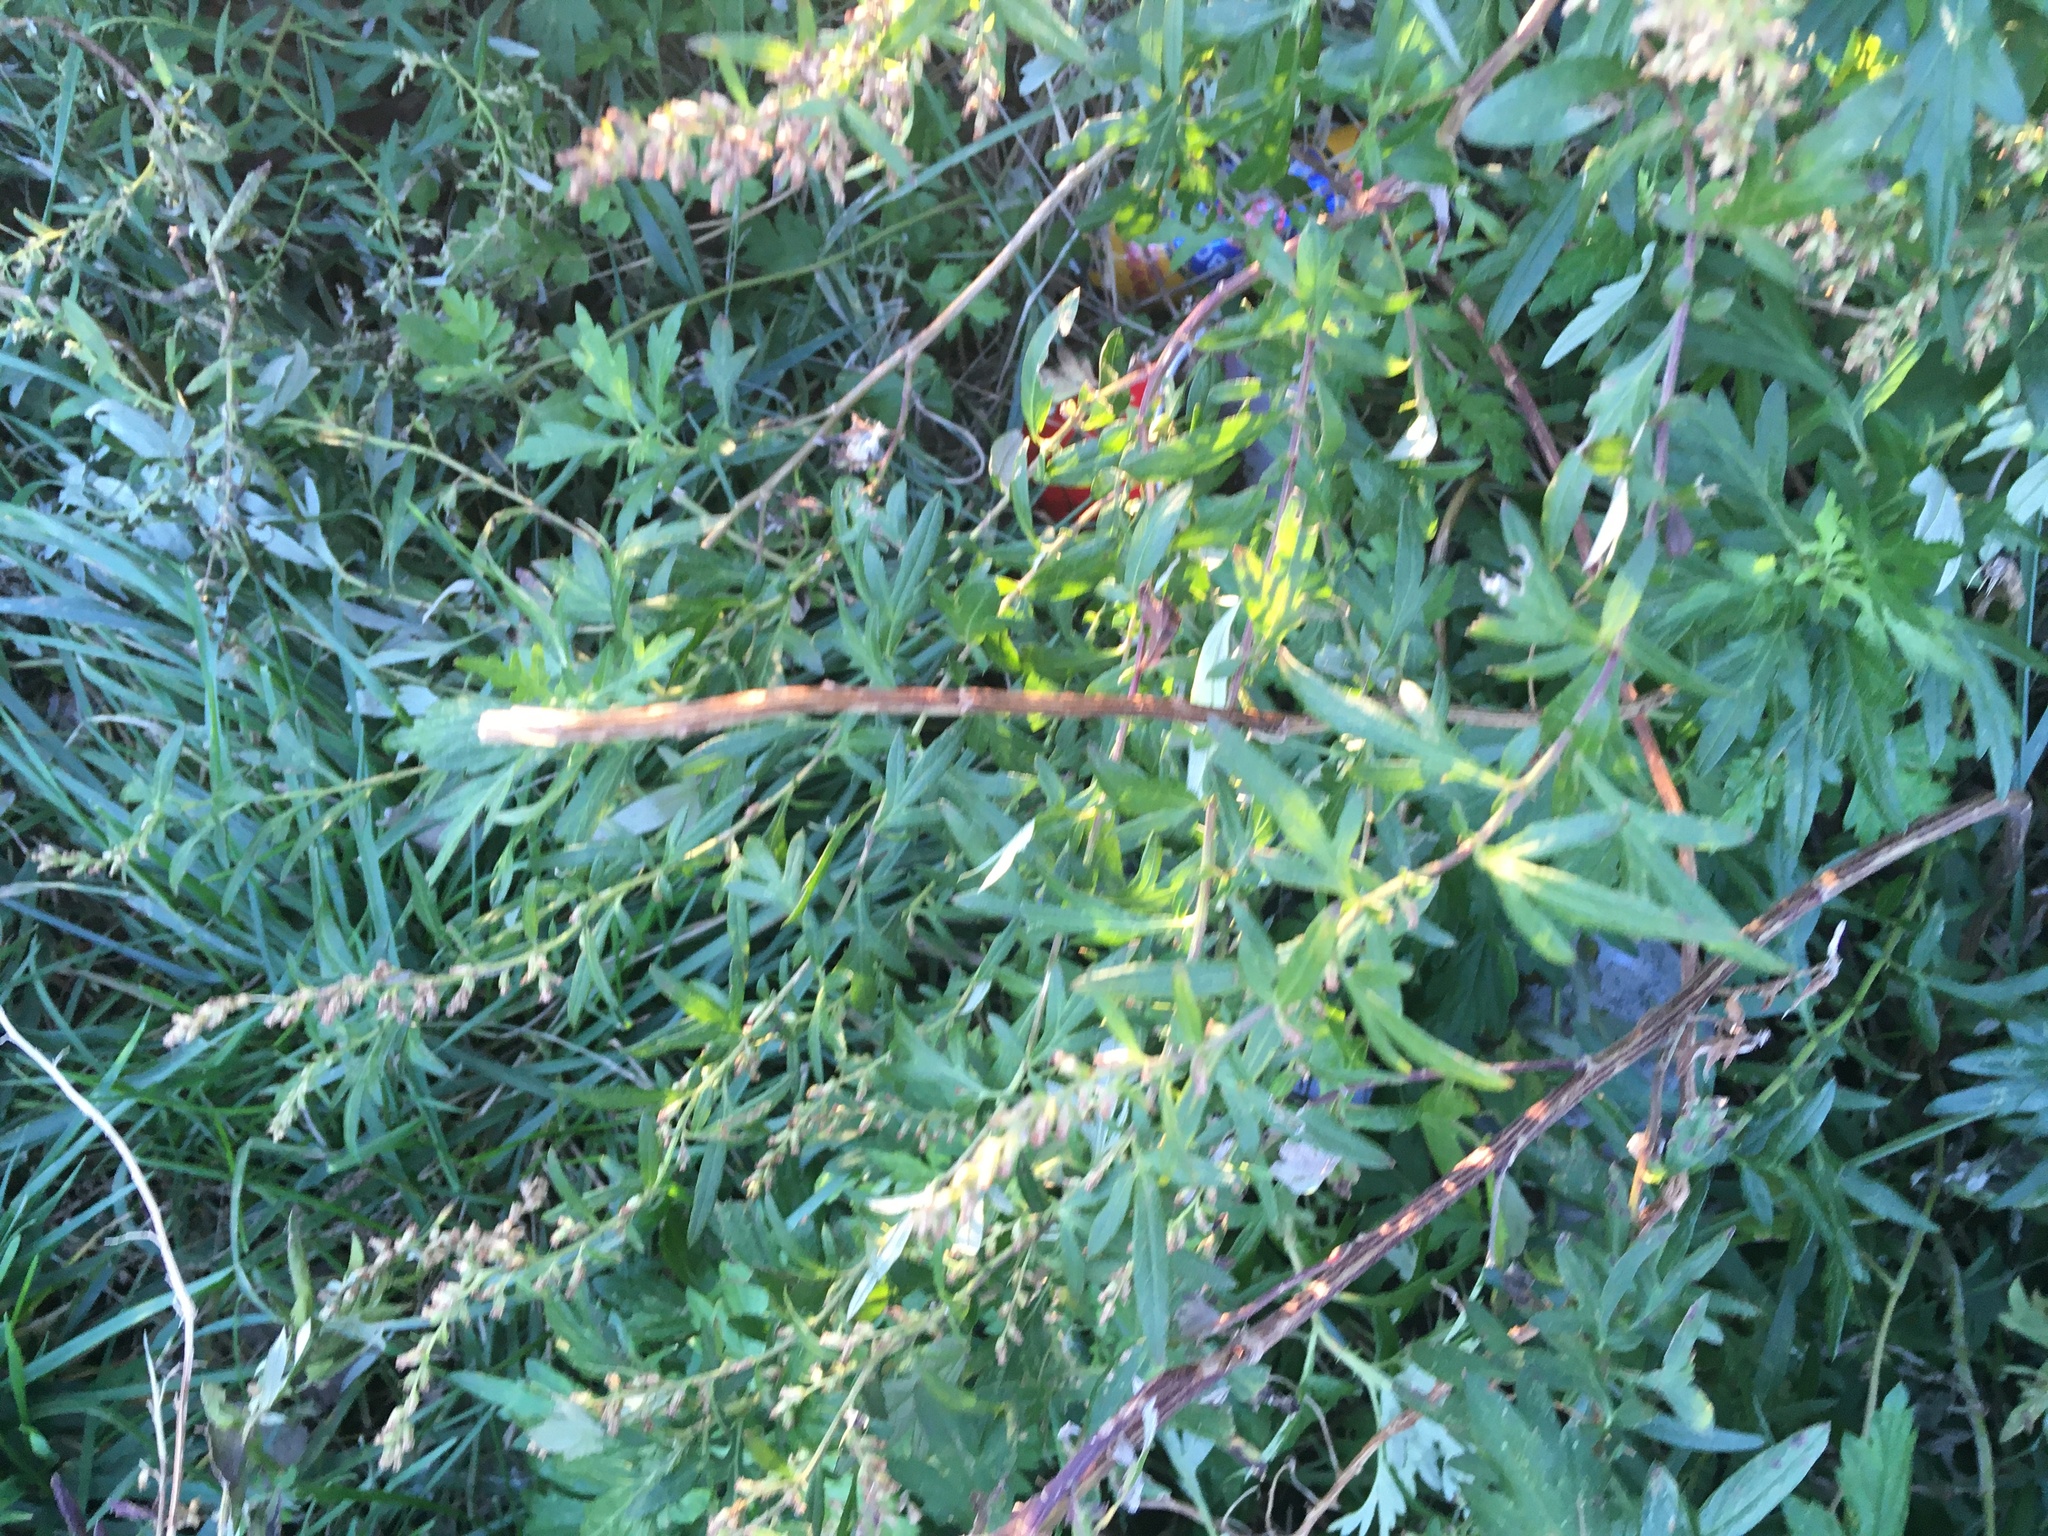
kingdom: Plantae
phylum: Tracheophyta
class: Magnoliopsida
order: Asterales
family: Asteraceae
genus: Artemisia
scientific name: Artemisia vulgaris
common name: Mugwort
